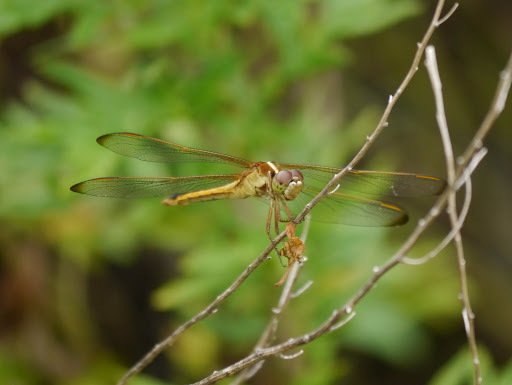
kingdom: Animalia
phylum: Arthropoda
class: Insecta
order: Odonata
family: Libellulidae
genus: Libellula
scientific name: Libellula needhami
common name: Needham's skimmer
